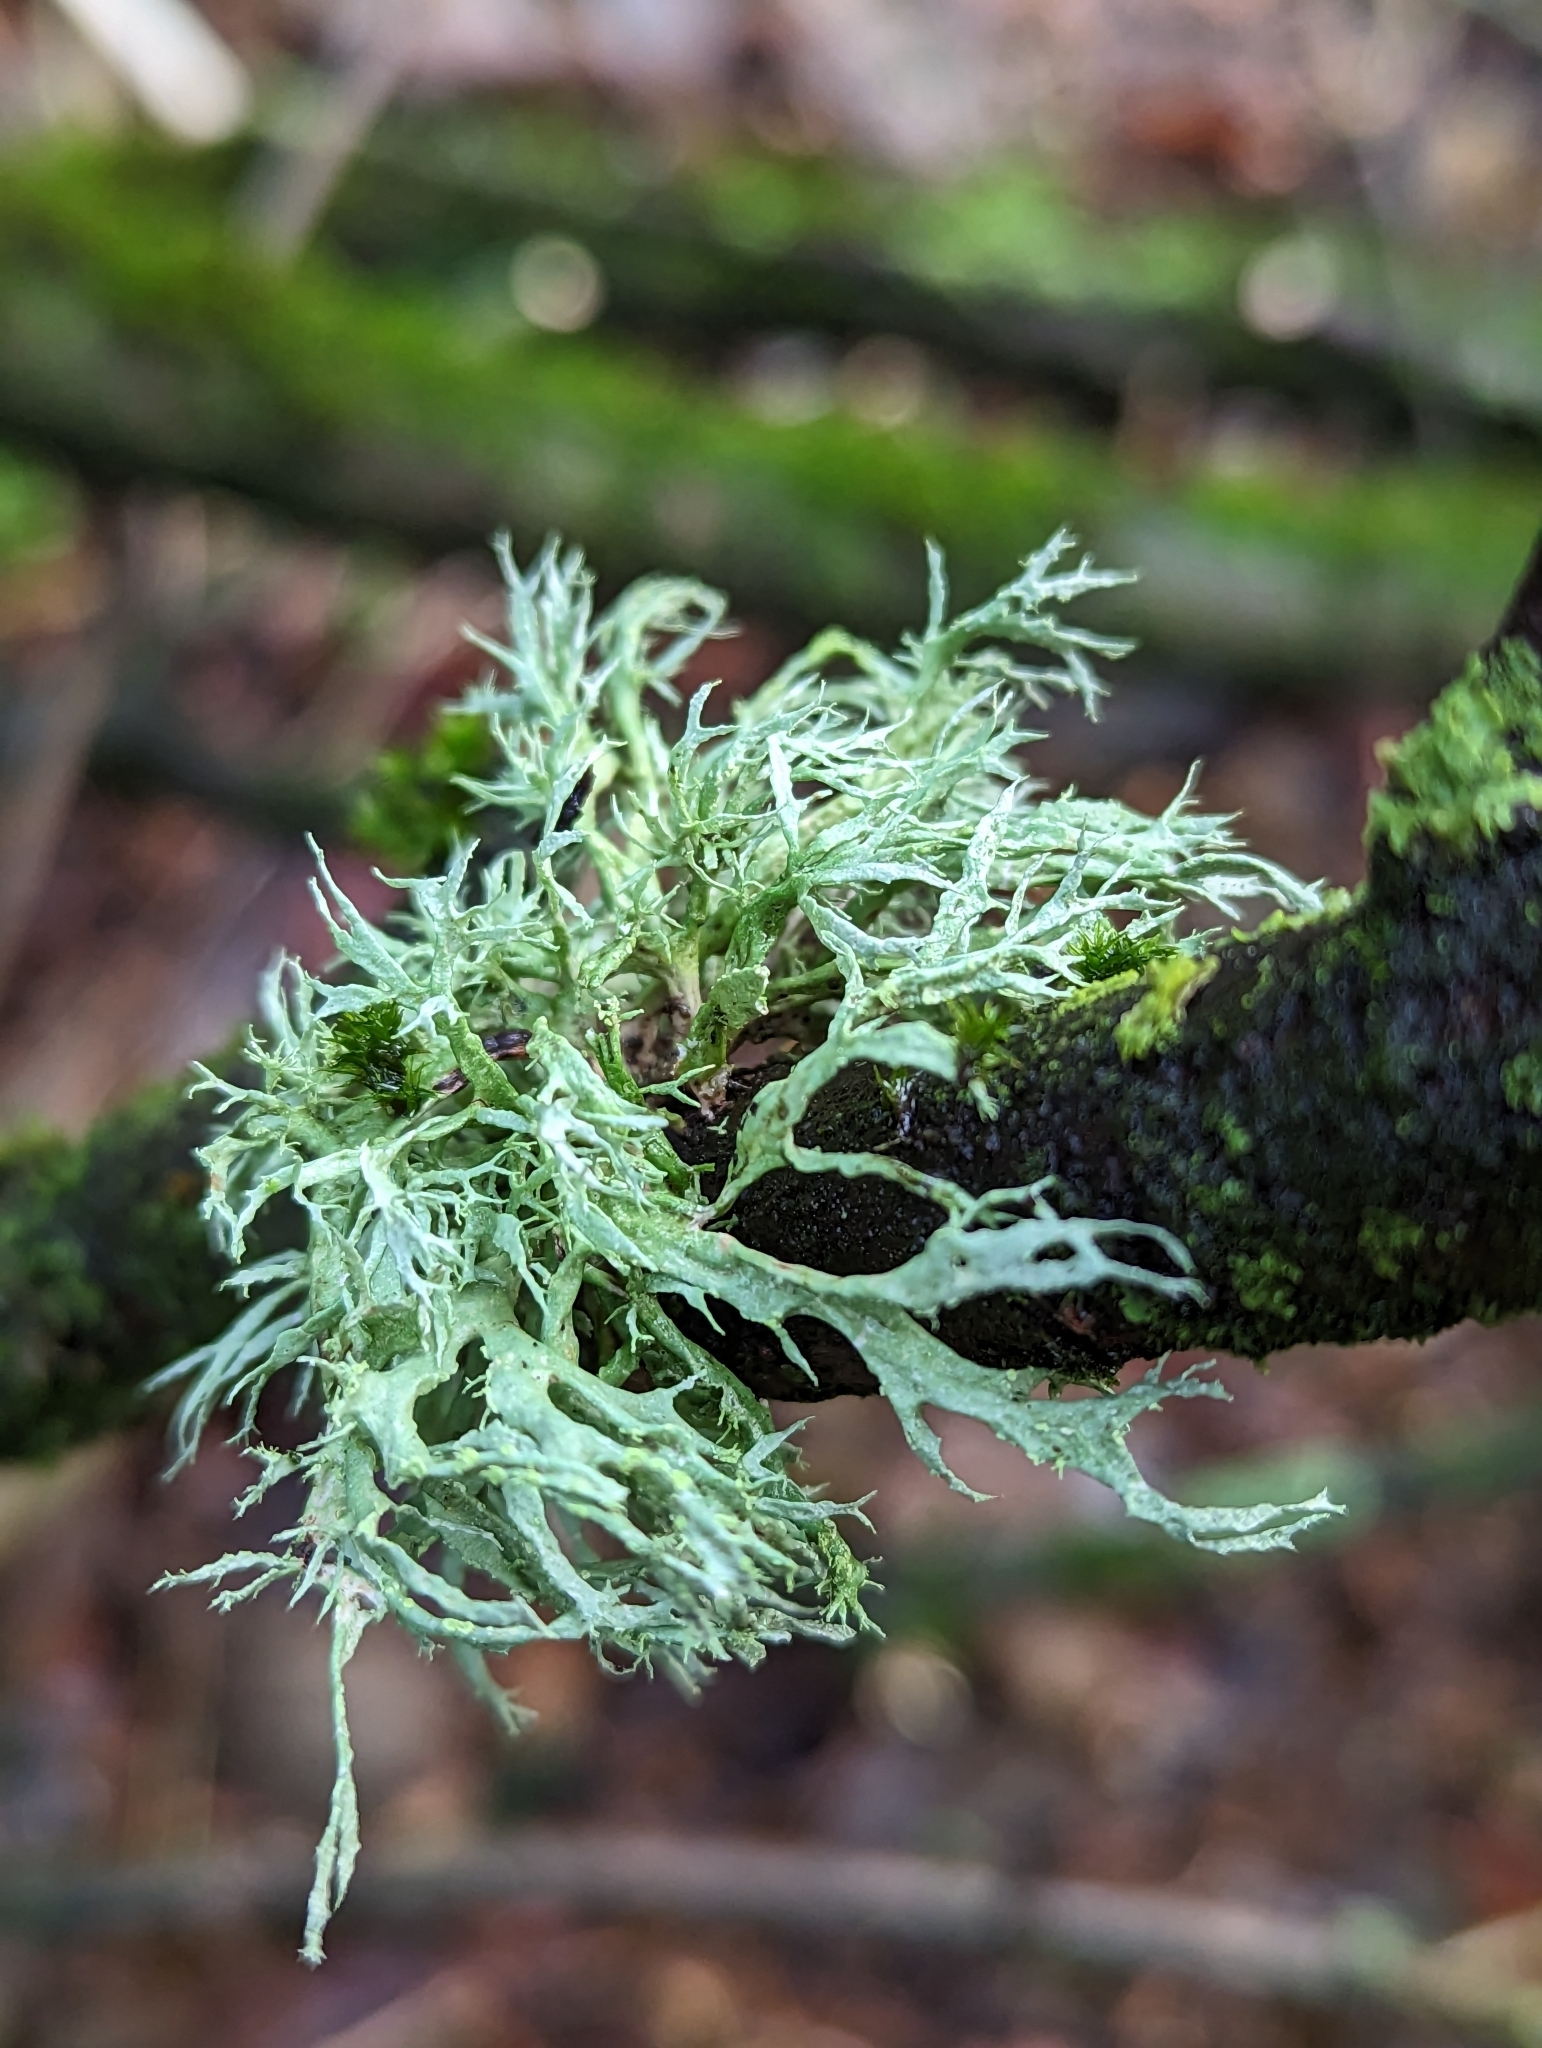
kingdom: Fungi
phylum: Ascomycota
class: Lecanoromycetes
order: Lecanorales
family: Ramalinaceae
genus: Ramalina
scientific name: Ramalina farinacea
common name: Farinose cartilage lichen
